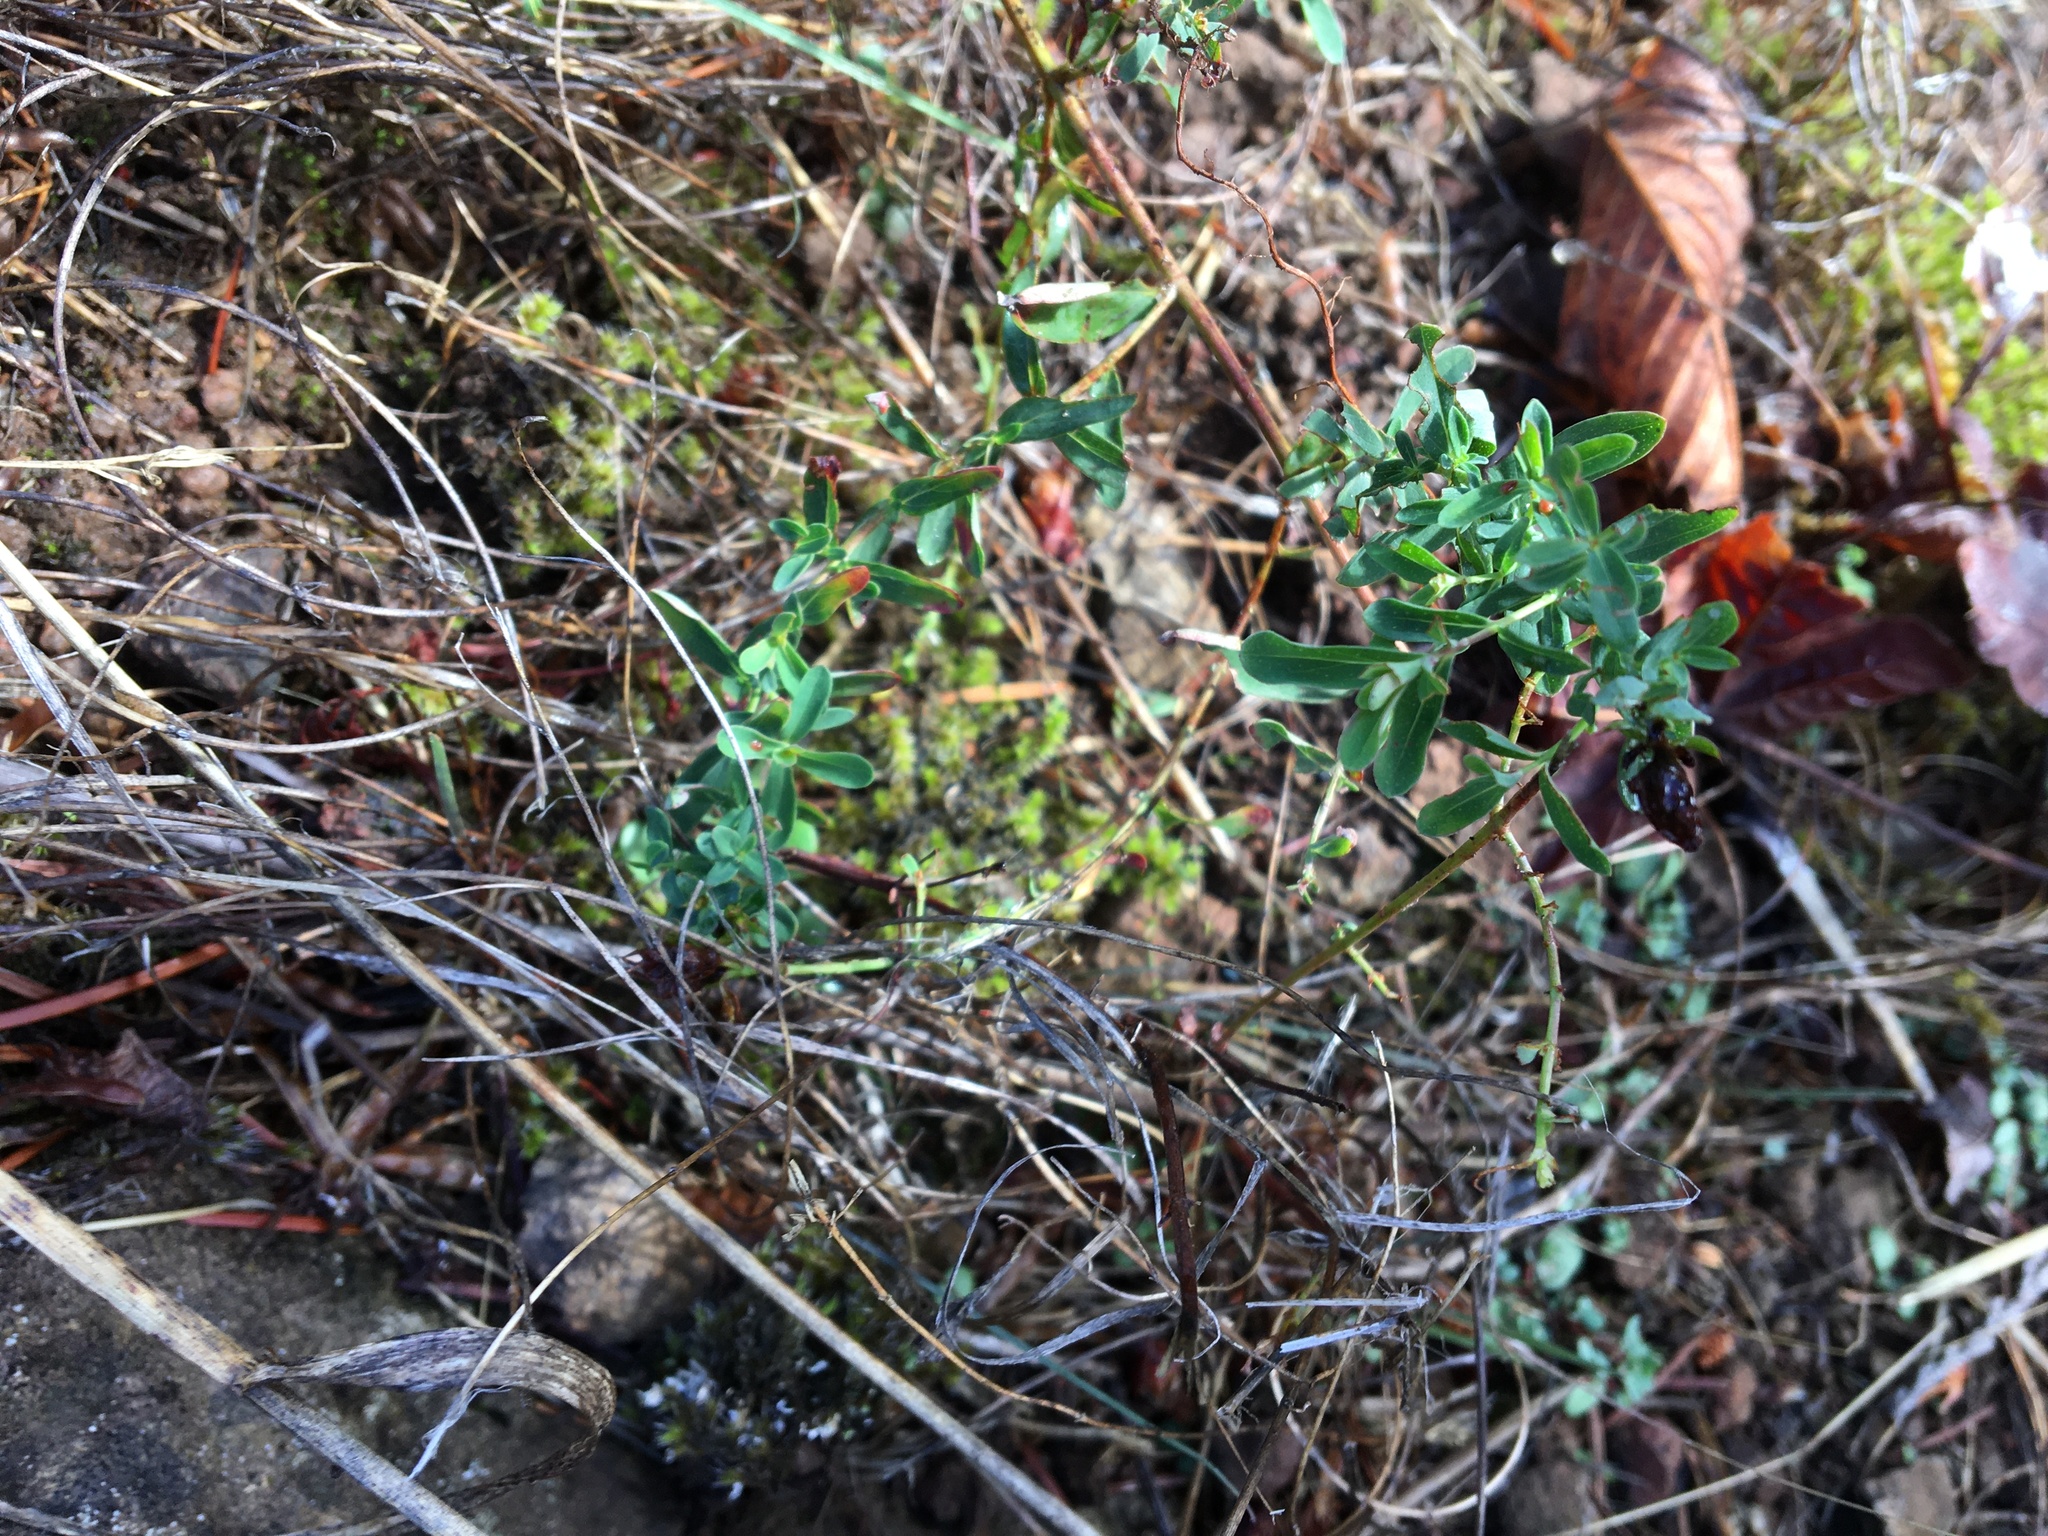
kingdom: Plantae
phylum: Tracheophyta
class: Magnoliopsida
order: Malpighiales
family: Hypericaceae
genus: Hypericum
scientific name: Hypericum perforatum
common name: Common st. johnswort
